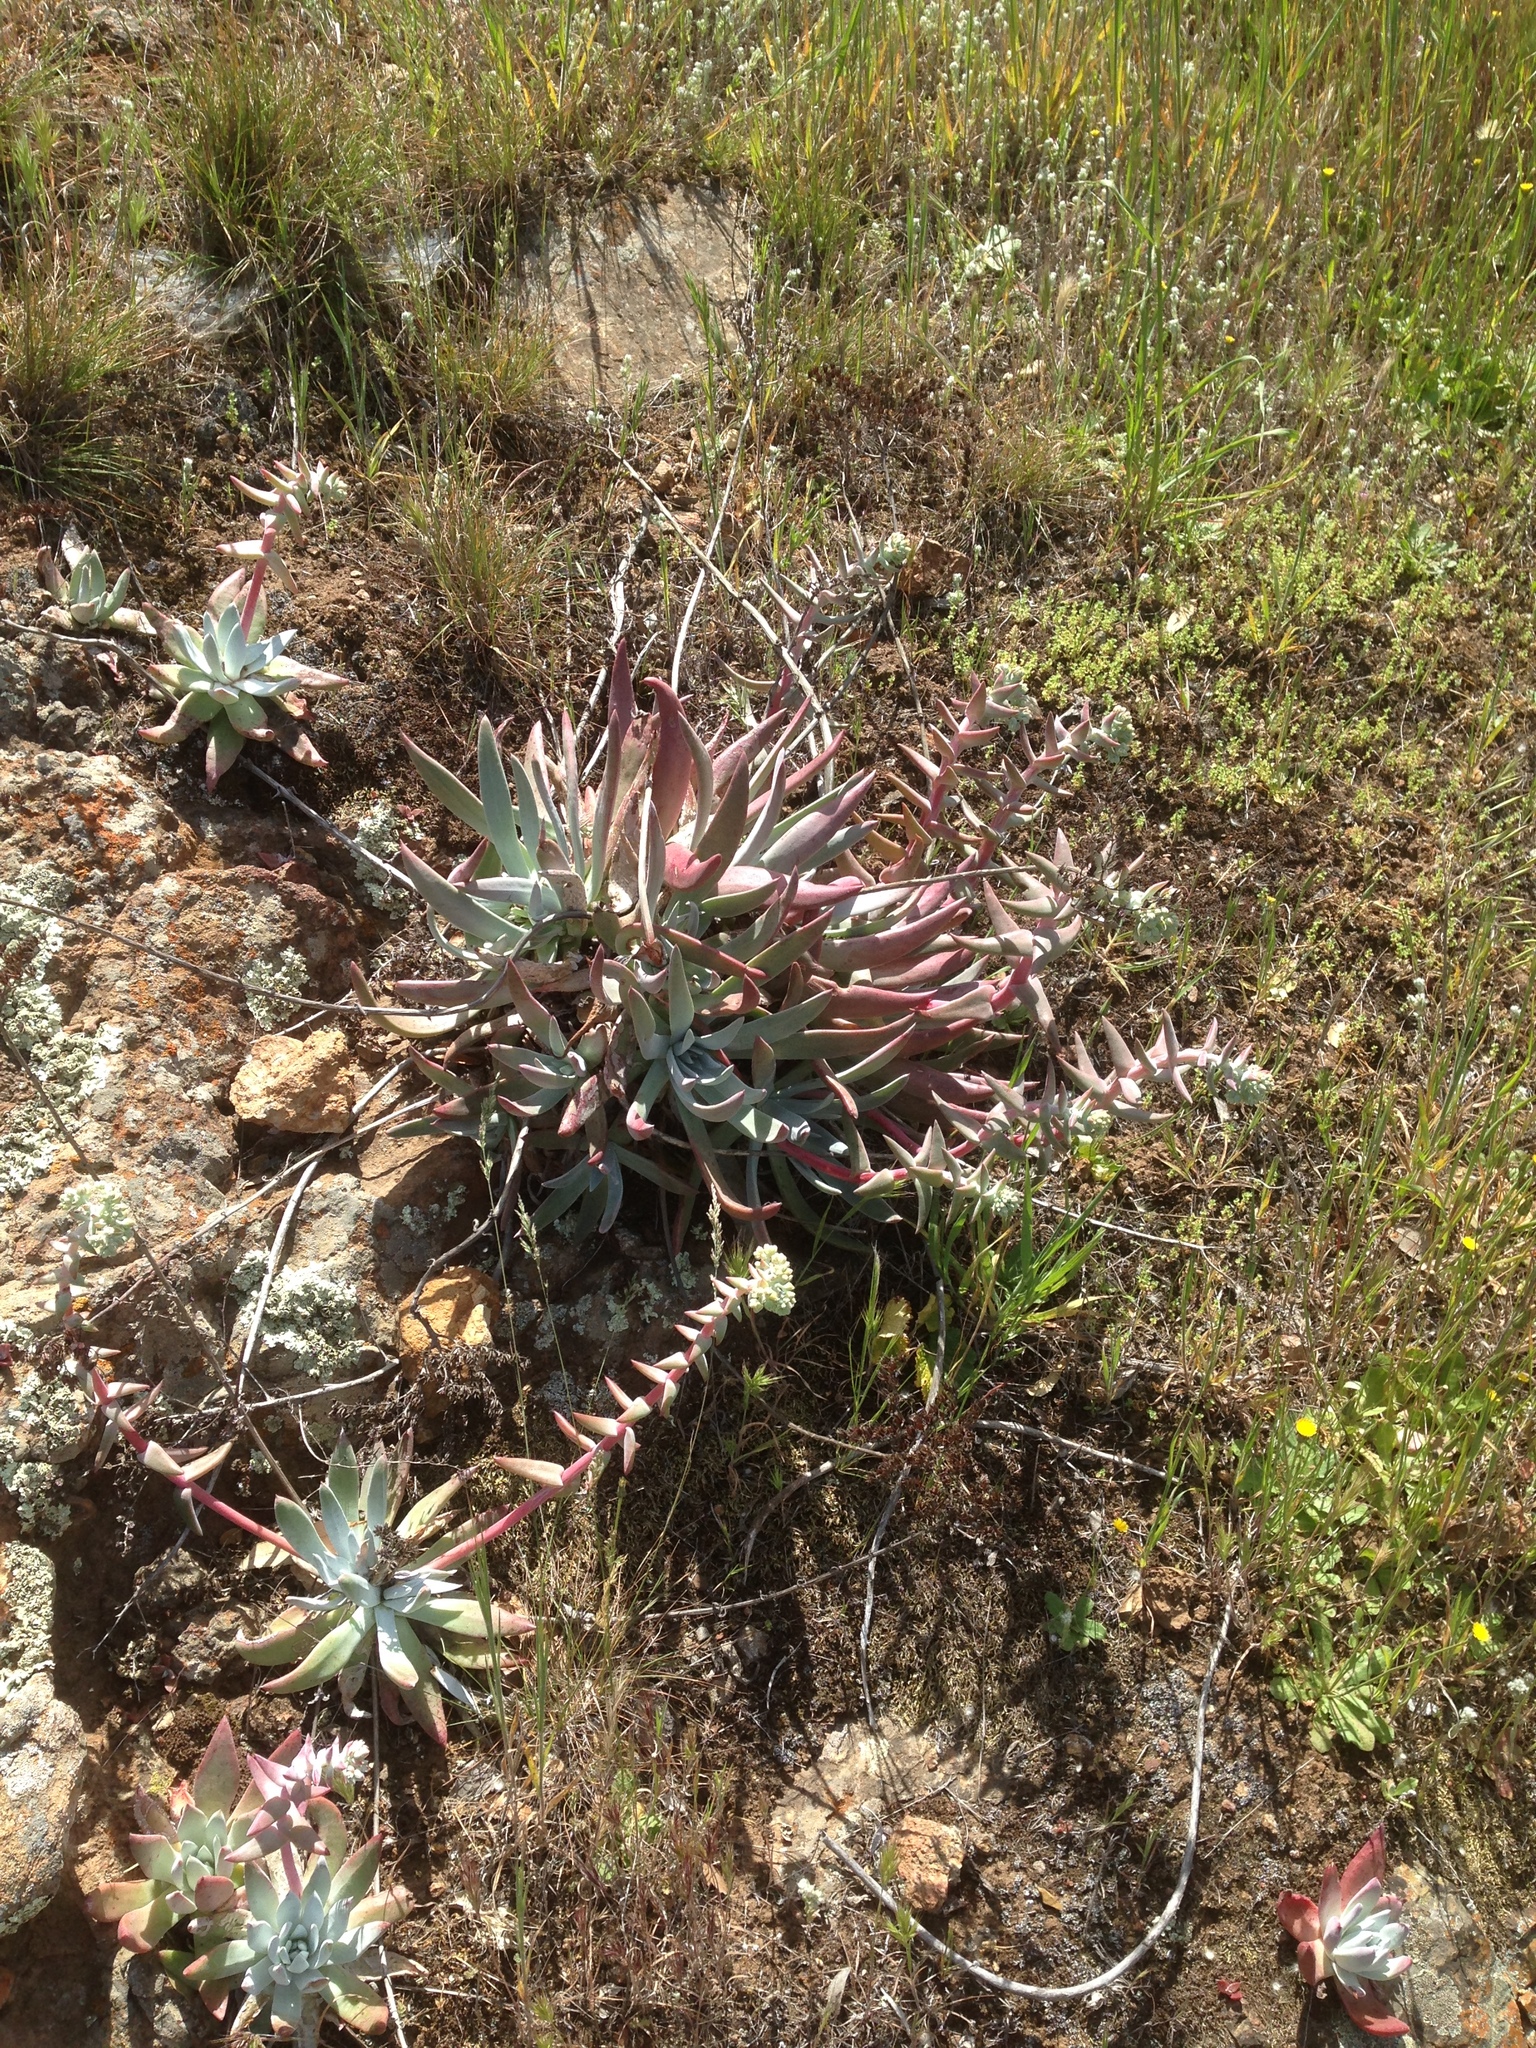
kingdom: Plantae
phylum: Tracheophyta
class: Magnoliopsida
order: Saxifragales
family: Crassulaceae
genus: Dudleya
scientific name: Dudleya greenei
